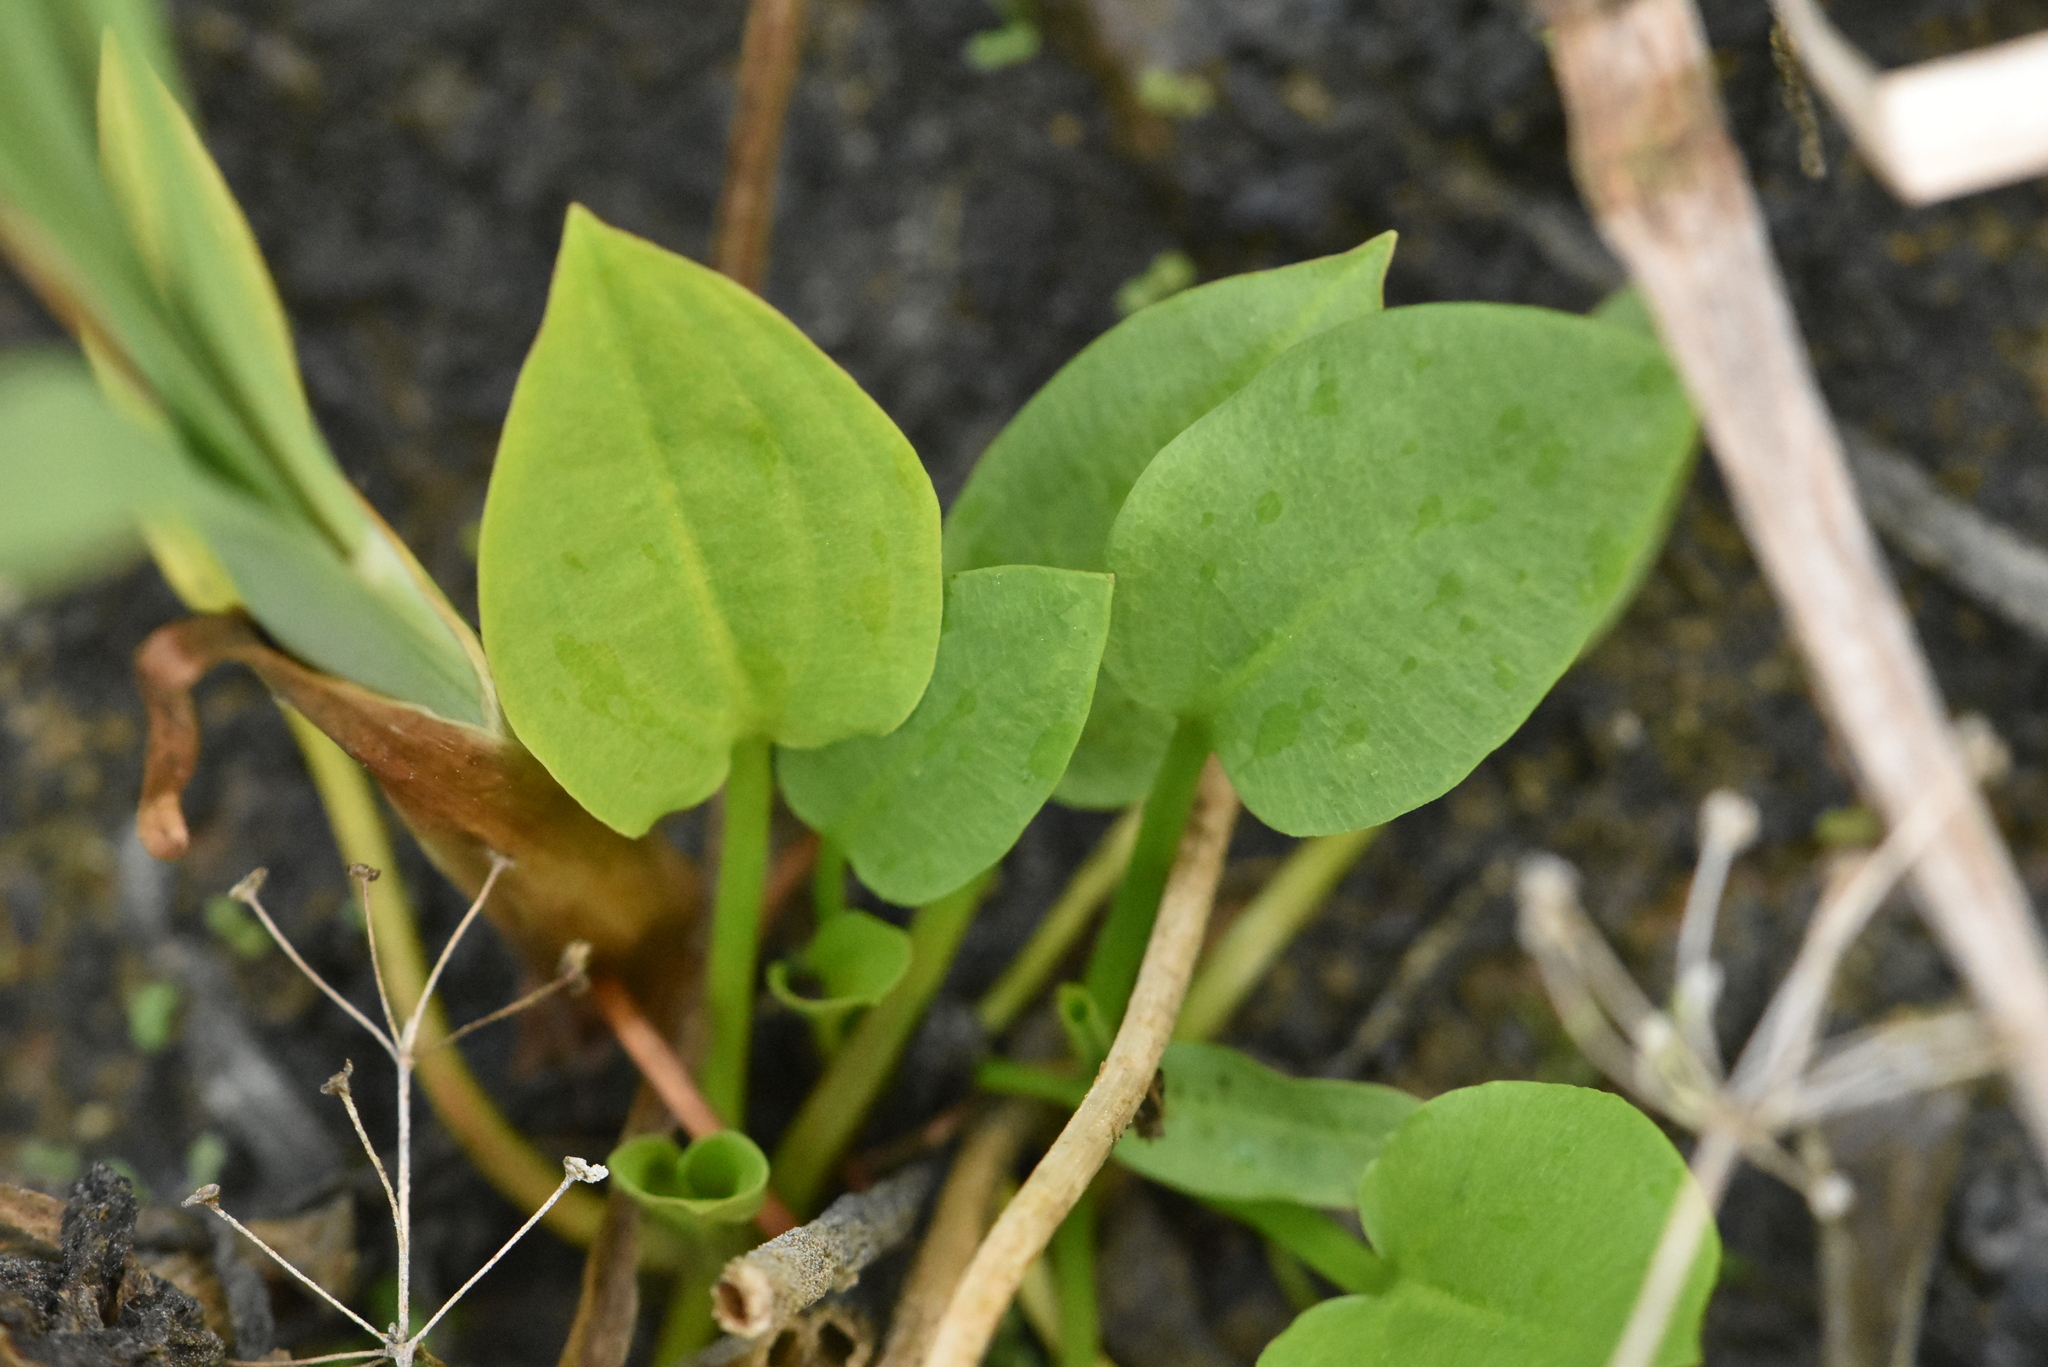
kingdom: Plantae
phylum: Tracheophyta
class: Liliopsida
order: Alismatales
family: Alismataceae
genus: Alisma
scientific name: Alisma plantago-aquatica
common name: Water-plantain
